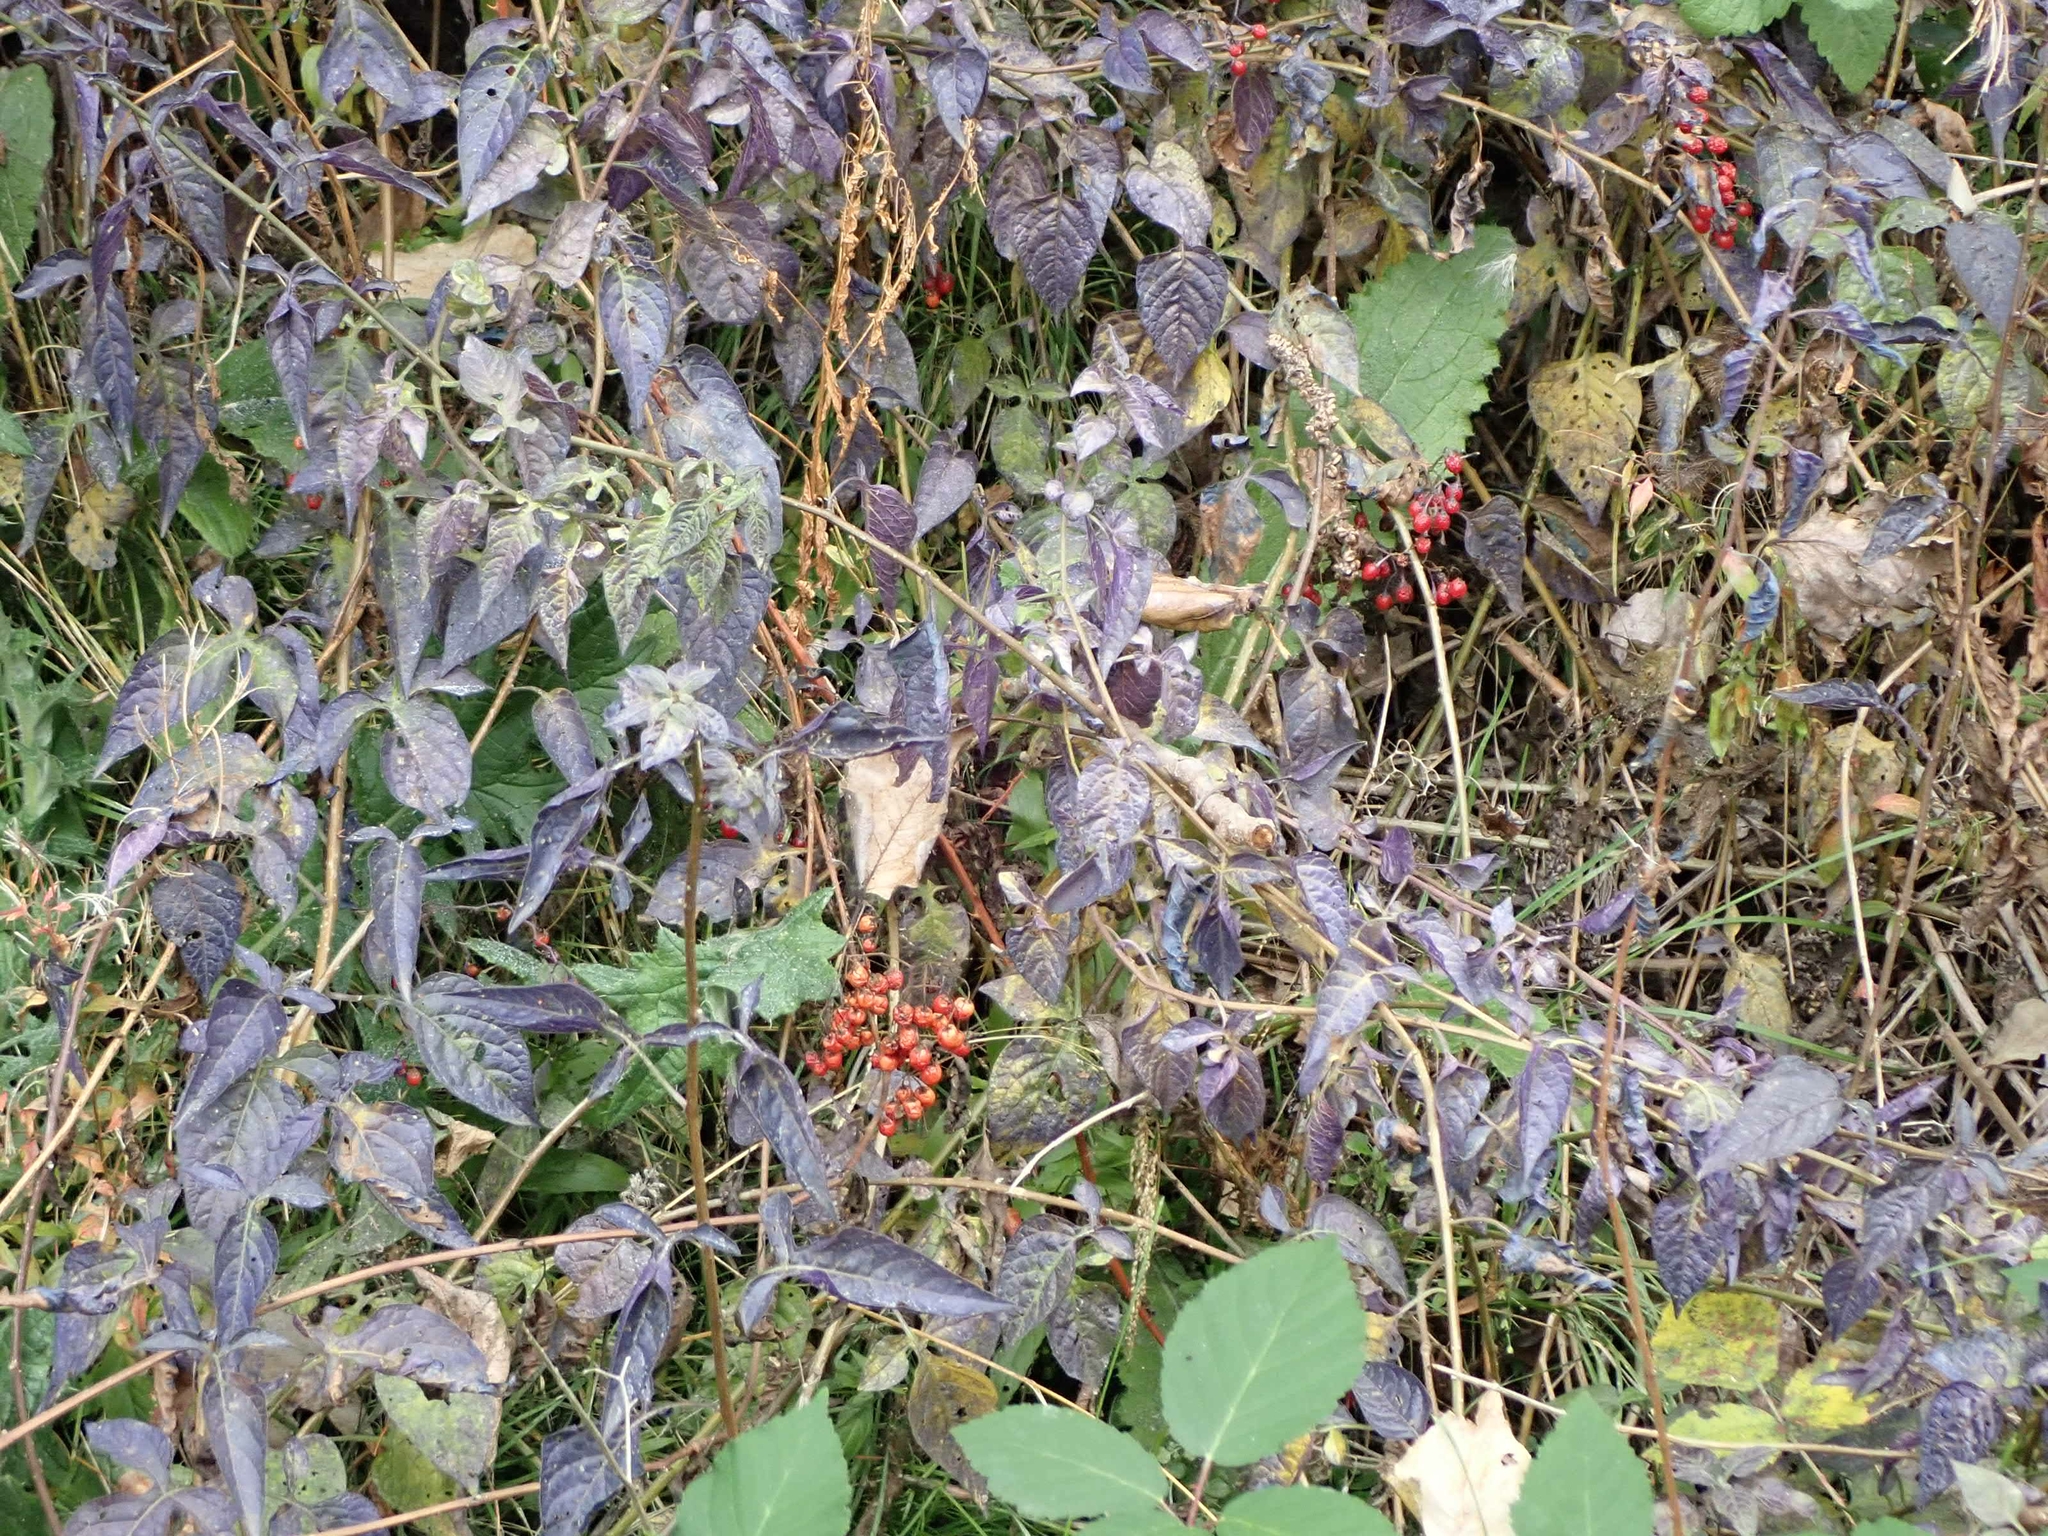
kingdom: Plantae
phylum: Tracheophyta
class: Magnoliopsida
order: Solanales
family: Solanaceae
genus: Solanum
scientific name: Solanum dulcamara
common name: Climbing nightshade
